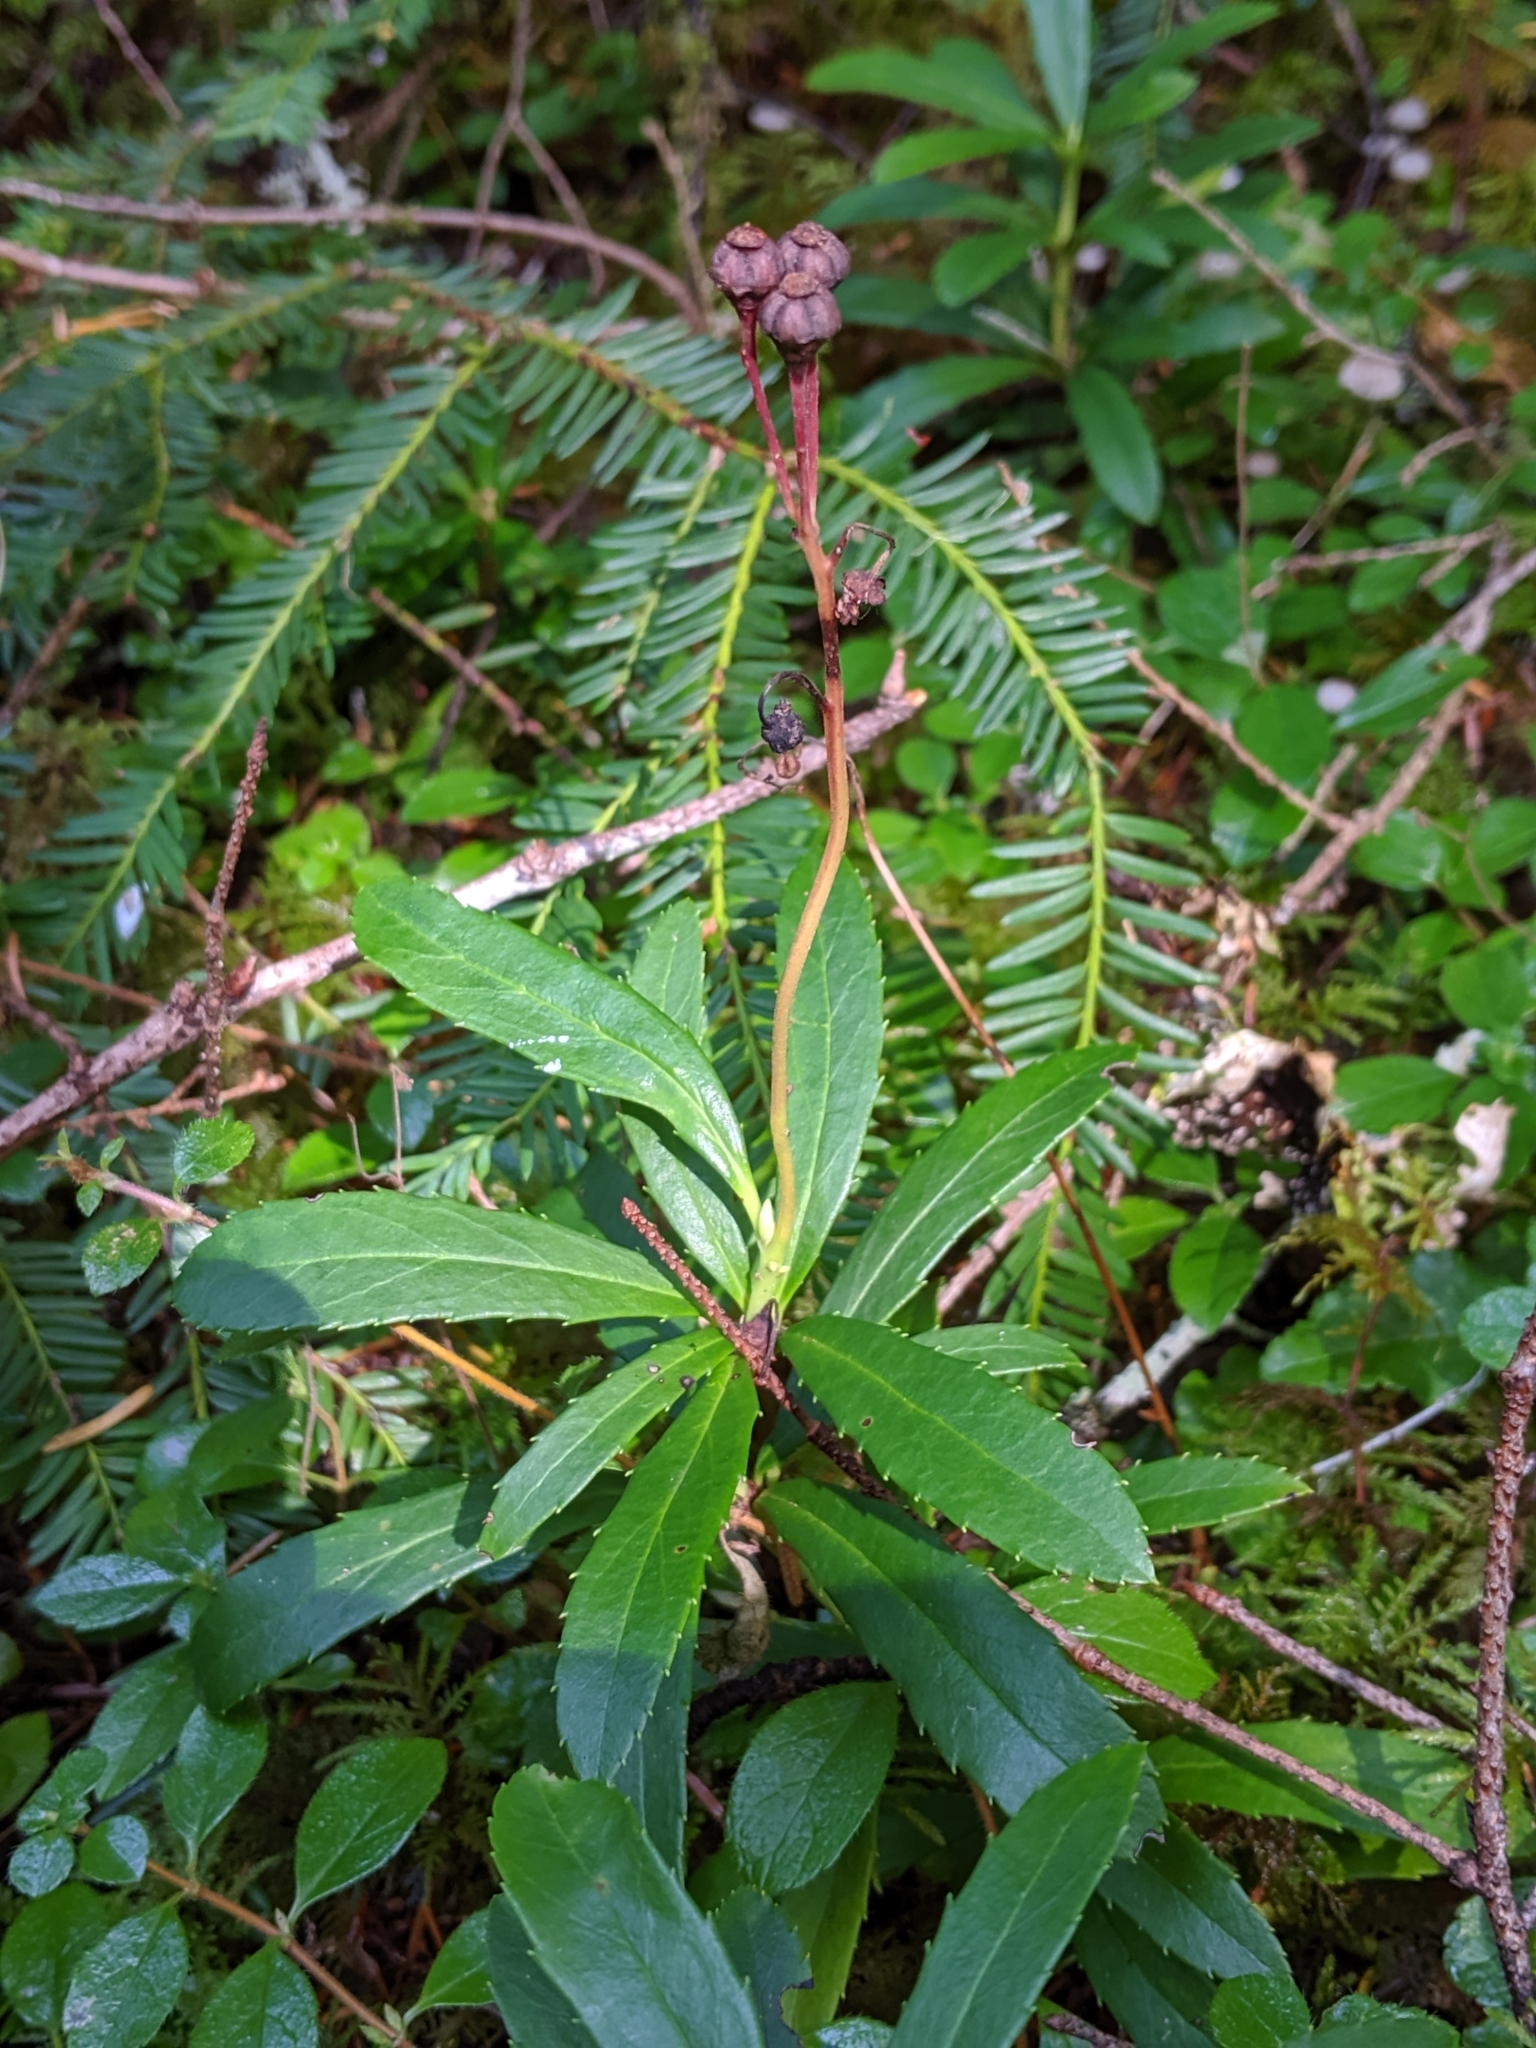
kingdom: Plantae
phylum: Tracheophyta
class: Magnoliopsida
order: Ericales
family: Ericaceae
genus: Chimaphila
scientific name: Chimaphila umbellata
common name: Pipsissewa
